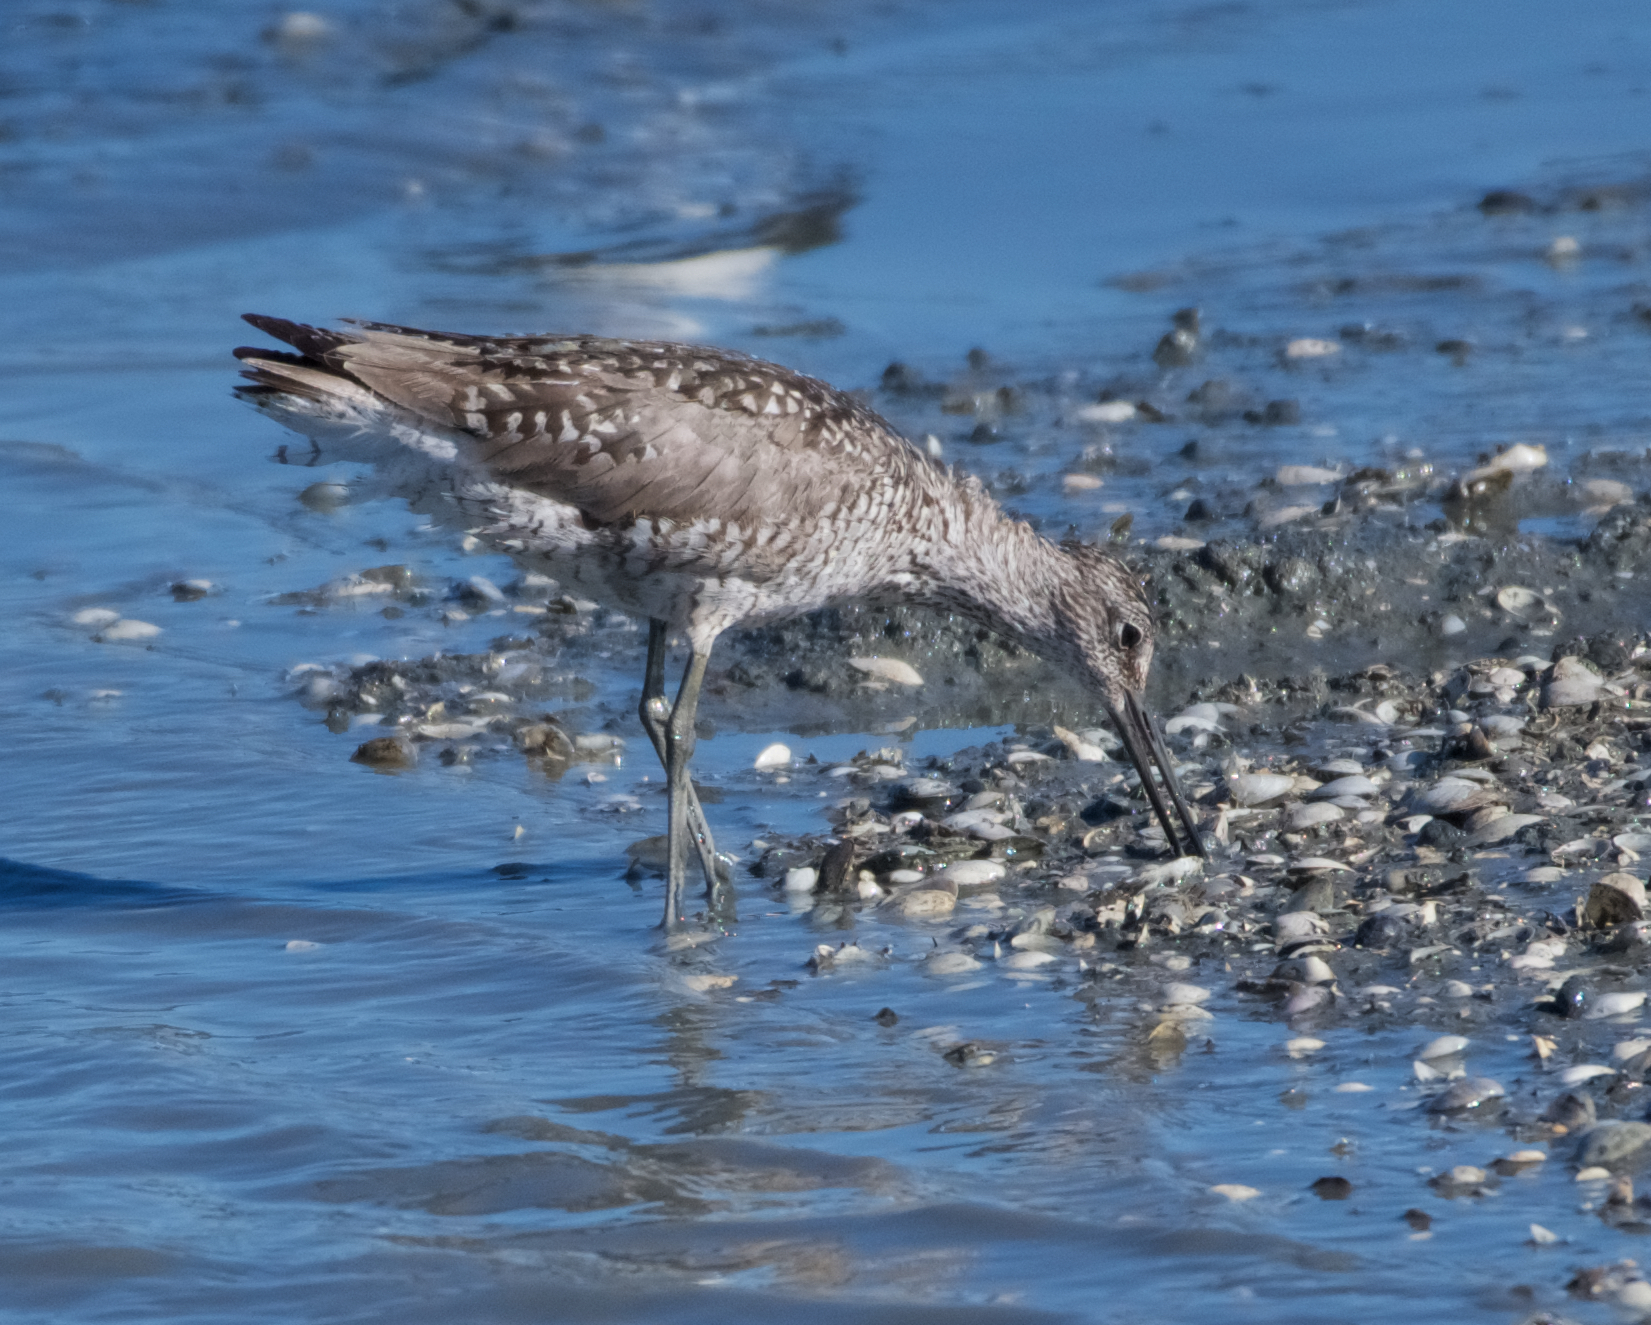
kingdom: Animalia
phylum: Chordata
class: Aves
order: Charadriiformes
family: Scolopacidae
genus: Tringa
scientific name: Tringa semipalmata
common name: Willet
